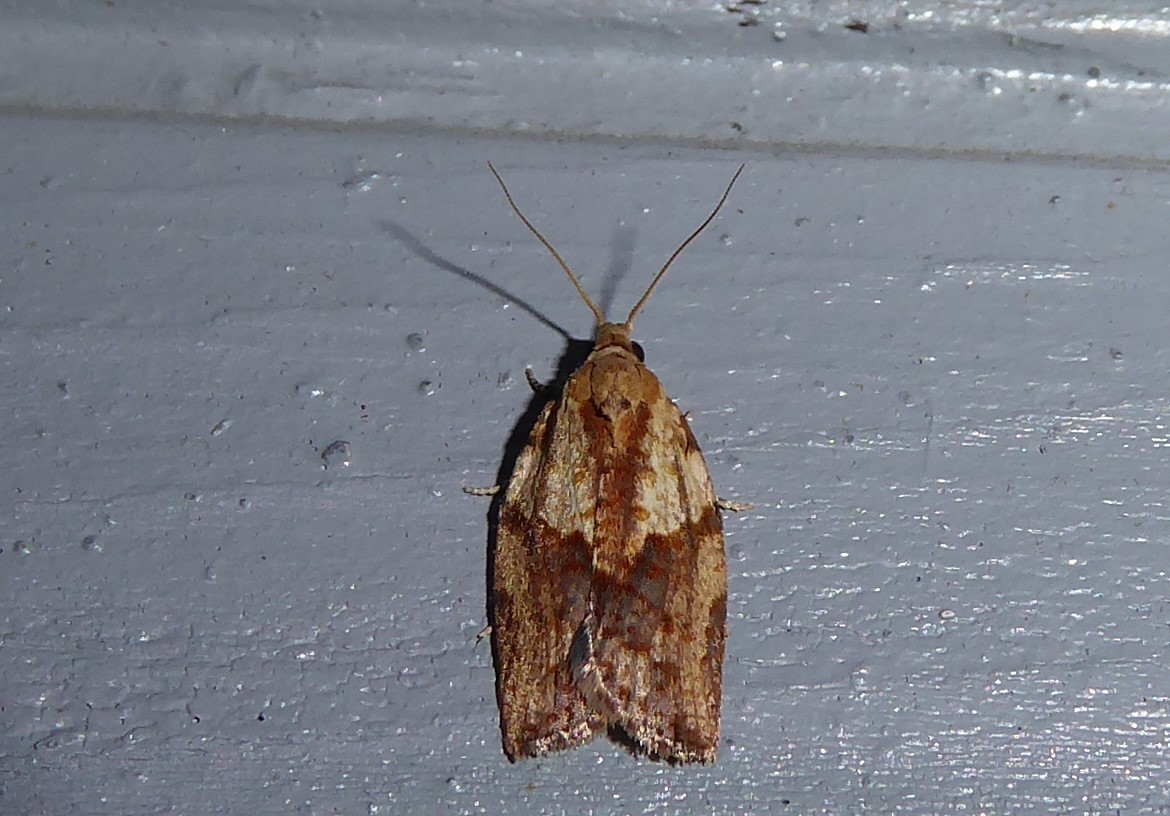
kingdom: Animalia
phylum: Arthropoda
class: Insecta
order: Lepidoptera
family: Tortricidae
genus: Epiphyas
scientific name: Epiphyas postvittana
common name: Light brown apple moth
